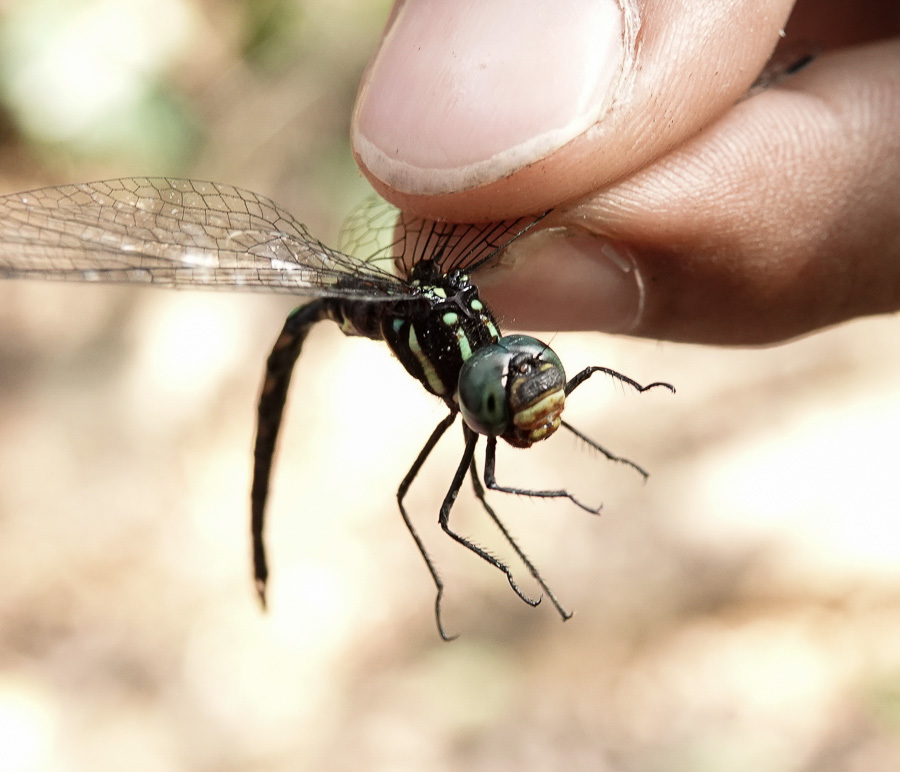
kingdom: Animalia
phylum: Arthropoda
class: Insecta
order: Odonata
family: Aeshnidae
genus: Sarasaeschna
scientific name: Sarasaeschna khasiana
